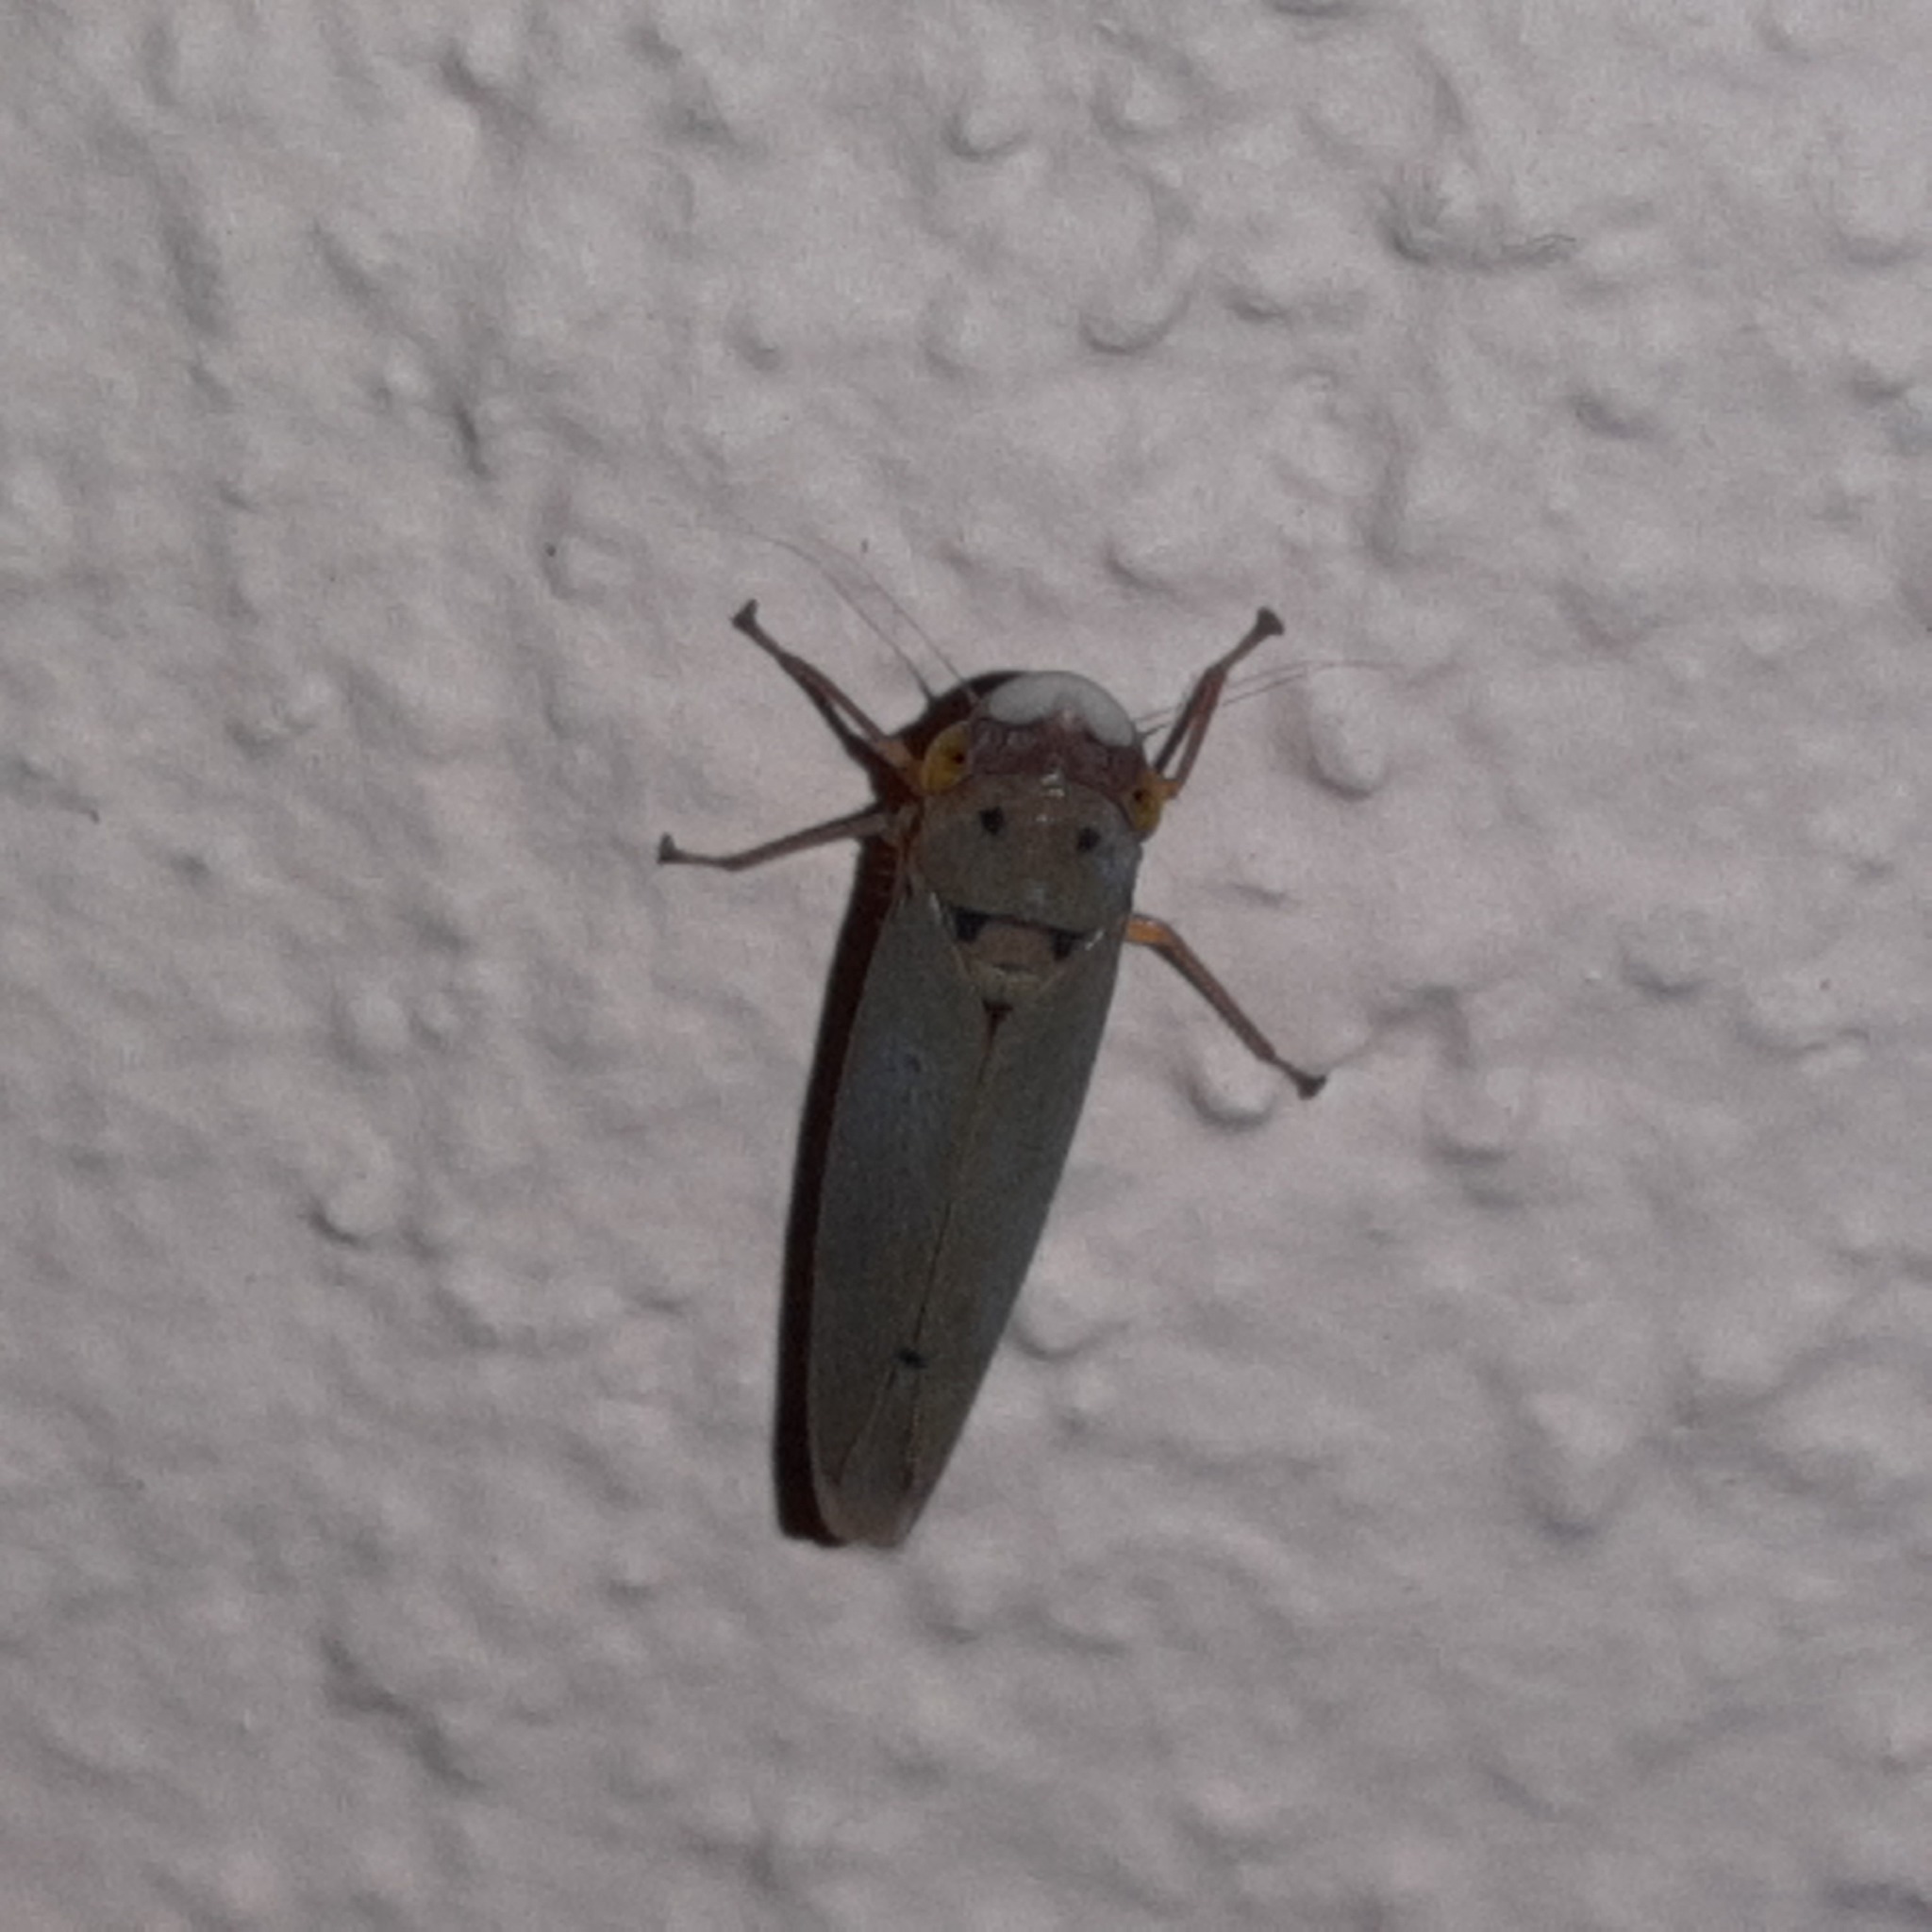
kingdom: Animalia
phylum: Arthropoda
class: Insecta
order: Hemiptera
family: Cicadellidae
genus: Nielsonia
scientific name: Nielsonia pucketti
